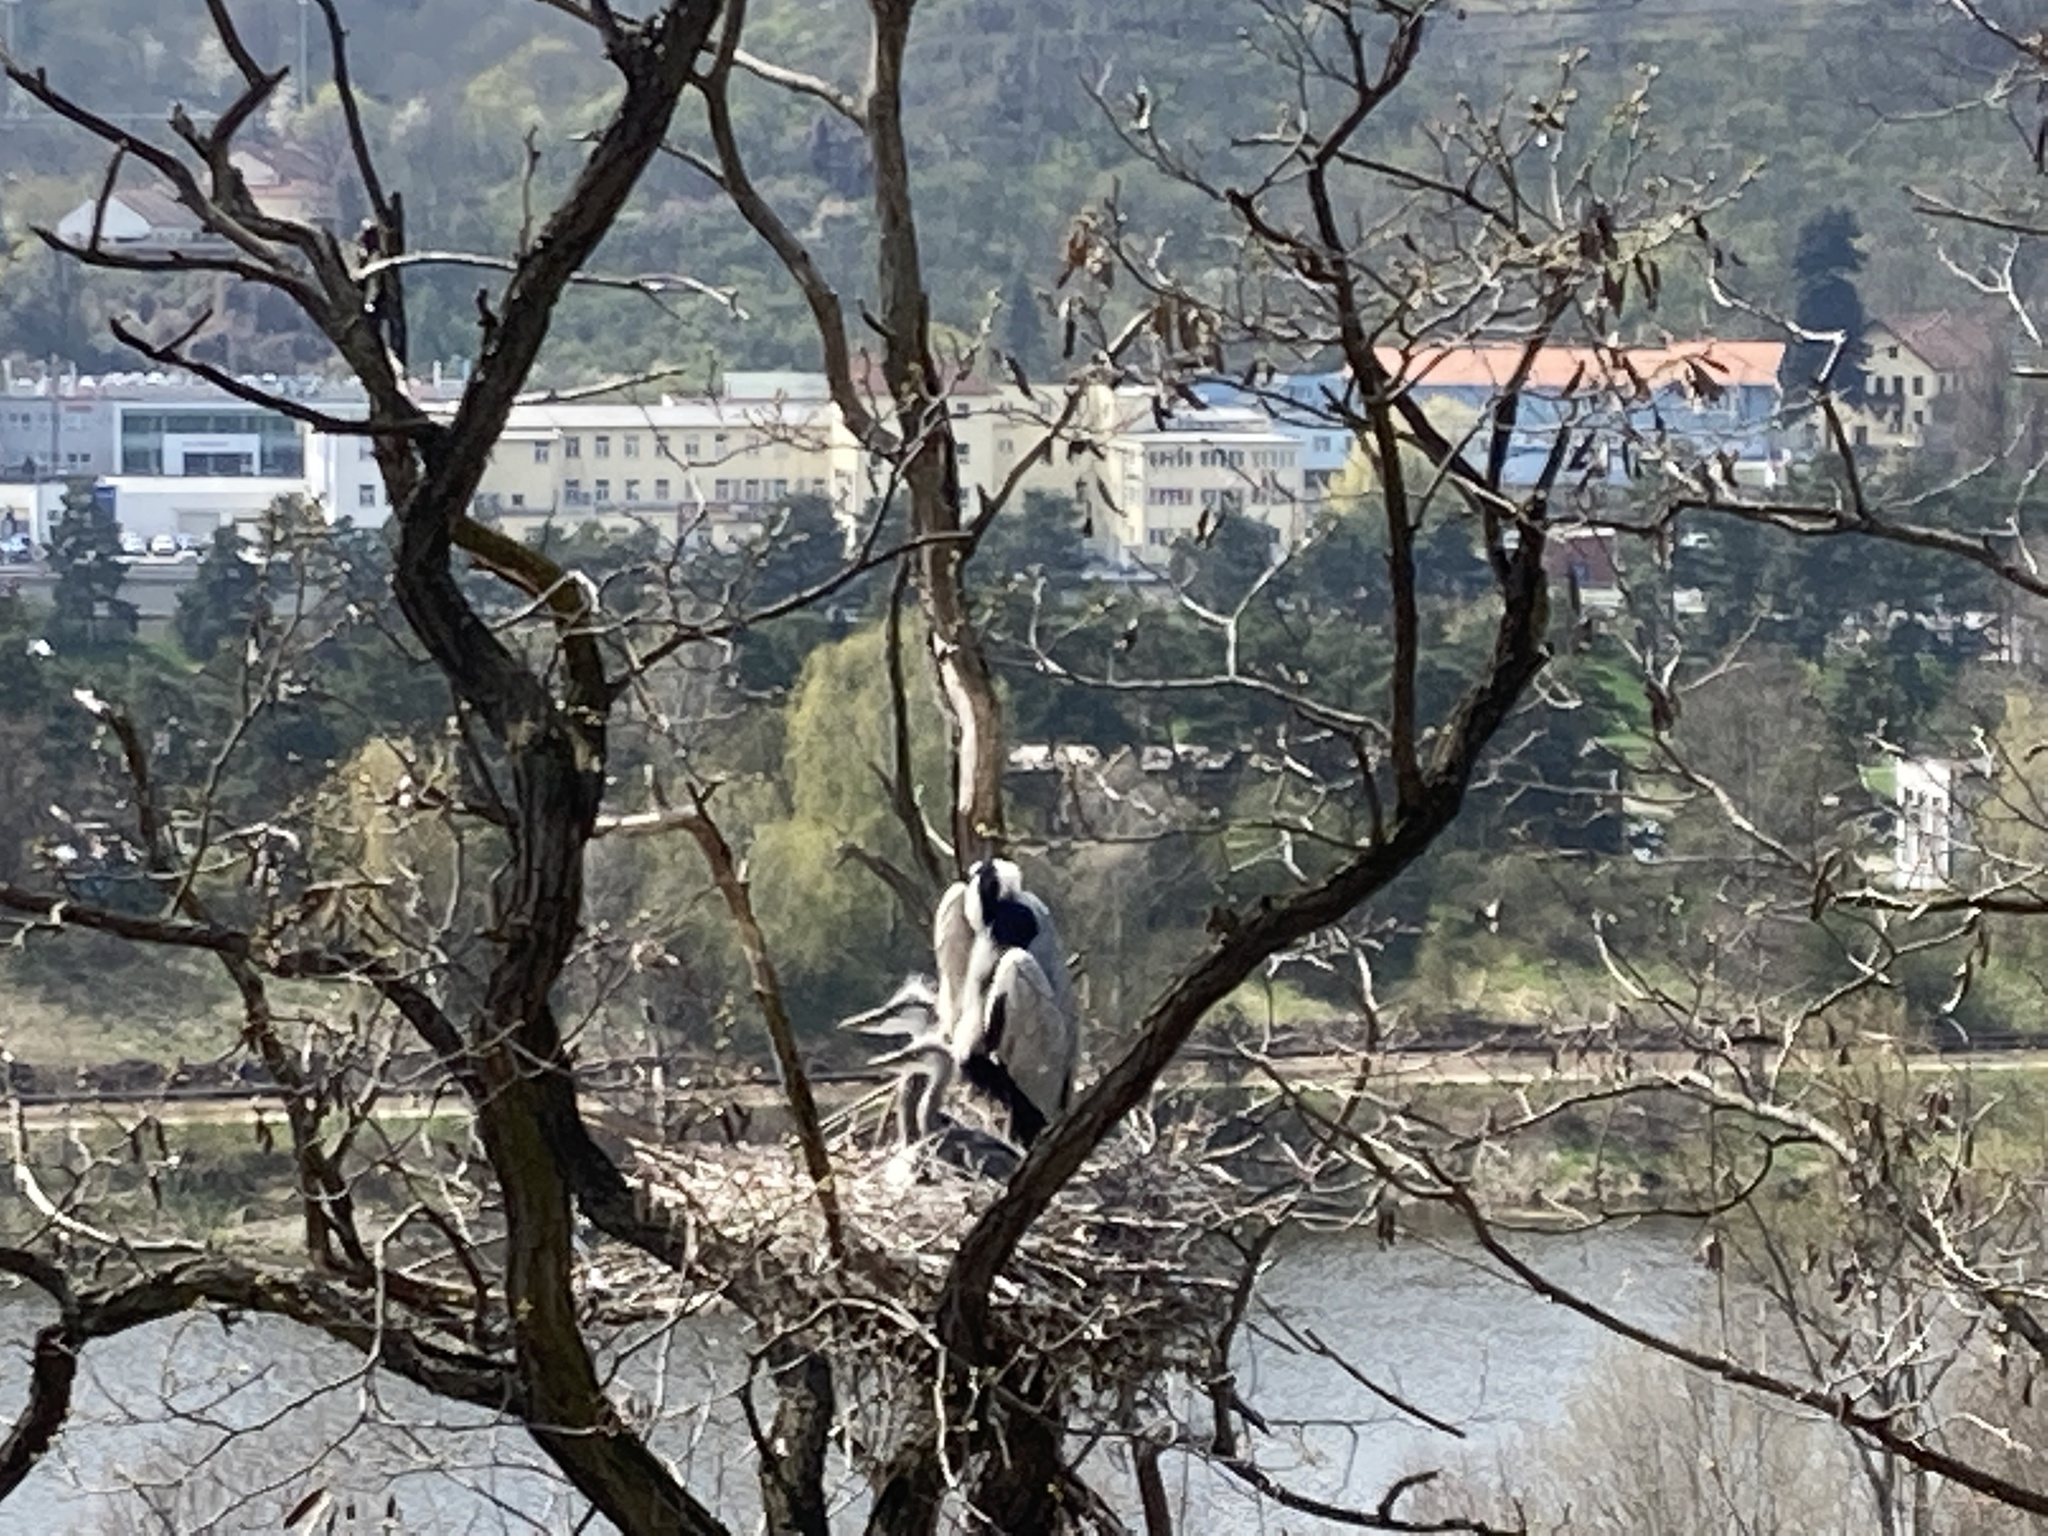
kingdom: Animalia
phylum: Chordata
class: Aves
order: Pelecaniformes
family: Ardeidae
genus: Ardea
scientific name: Ardea cinerea
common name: Grey heron
